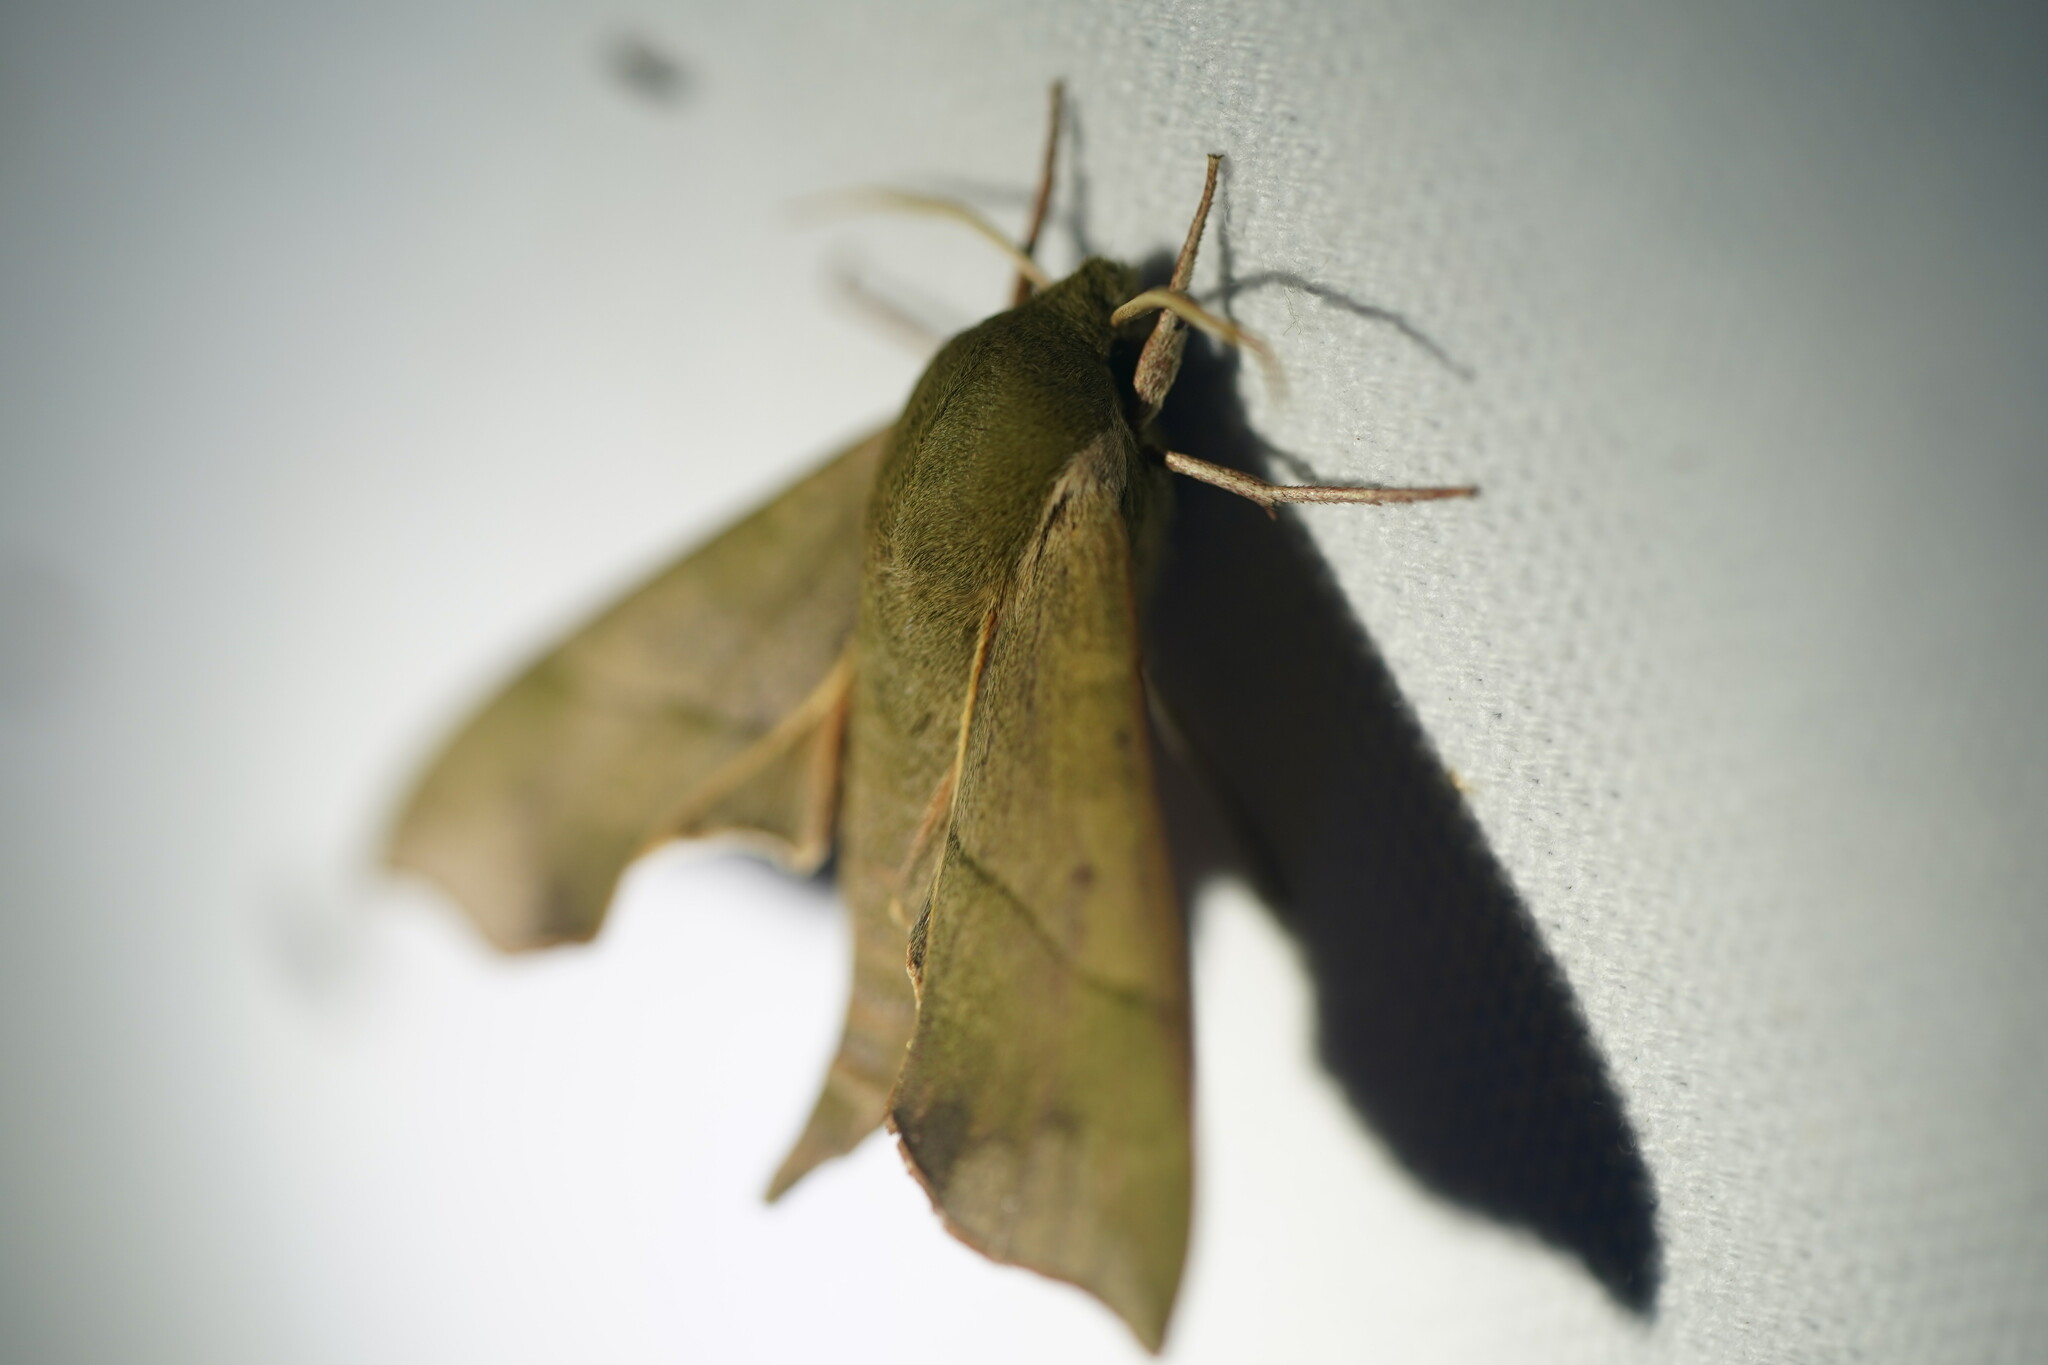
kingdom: Animalia
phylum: Arthropoda
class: Insecta
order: Lepidoptera
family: Sphingidae
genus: Darapsa
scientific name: Darapsa myron
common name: Hog sphinx
